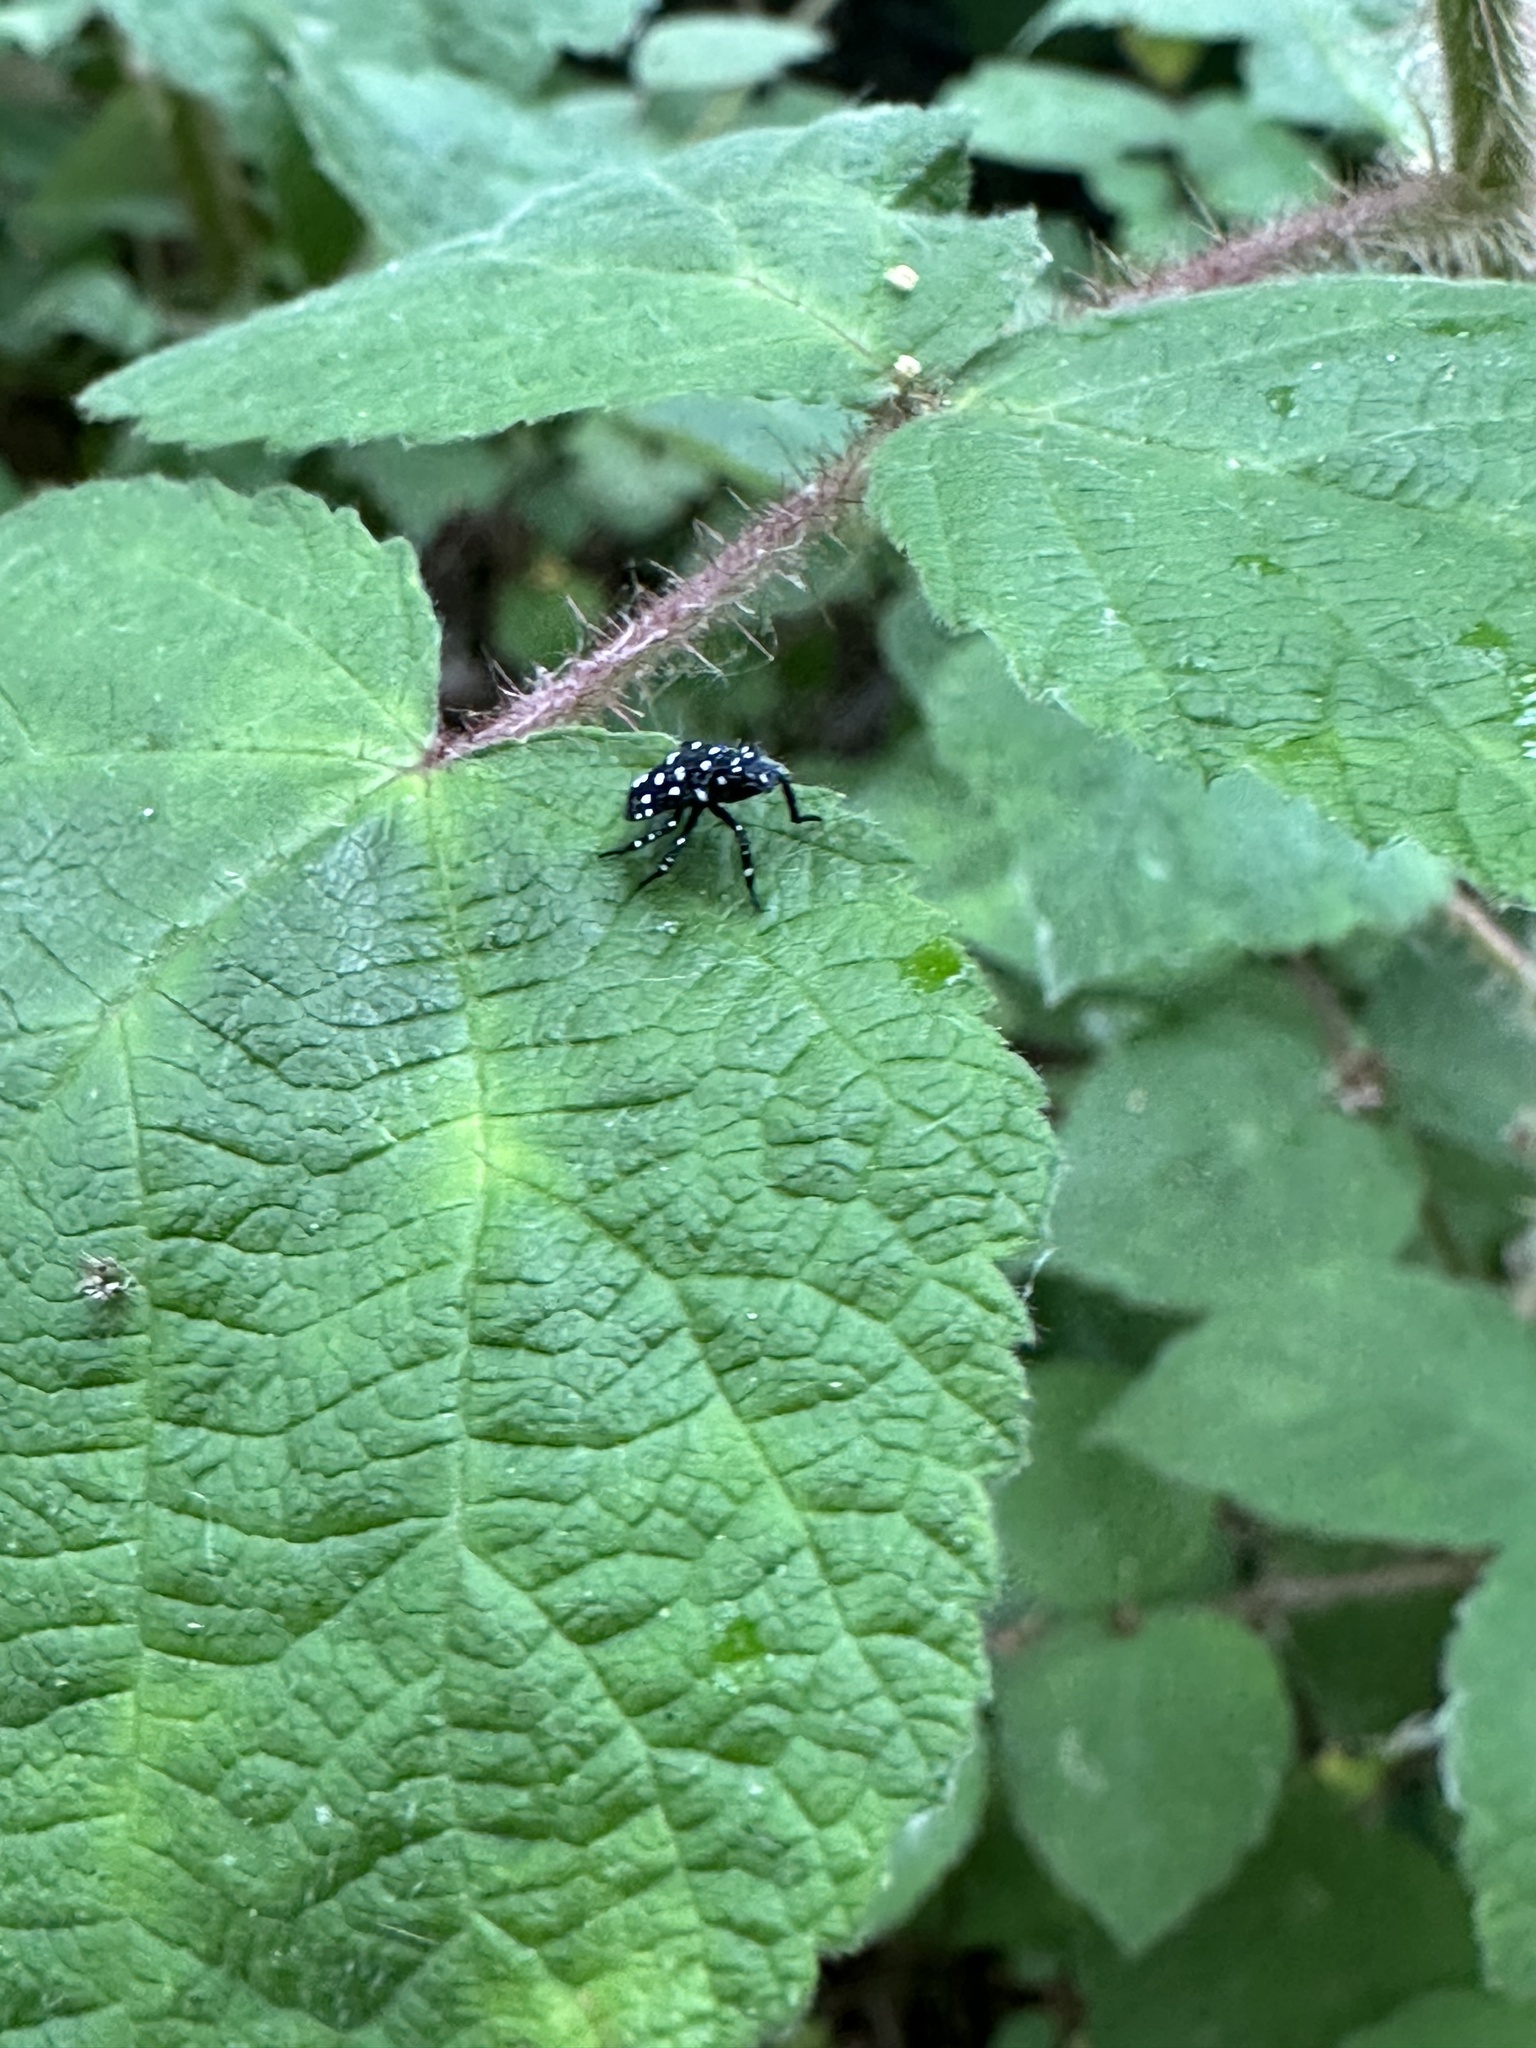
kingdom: Animalia
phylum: Arthropoda
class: Insecta
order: Hemiptera
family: Fulgoridae
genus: Lycorma
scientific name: Lycorma delicatula
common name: Spotted lanternfly
